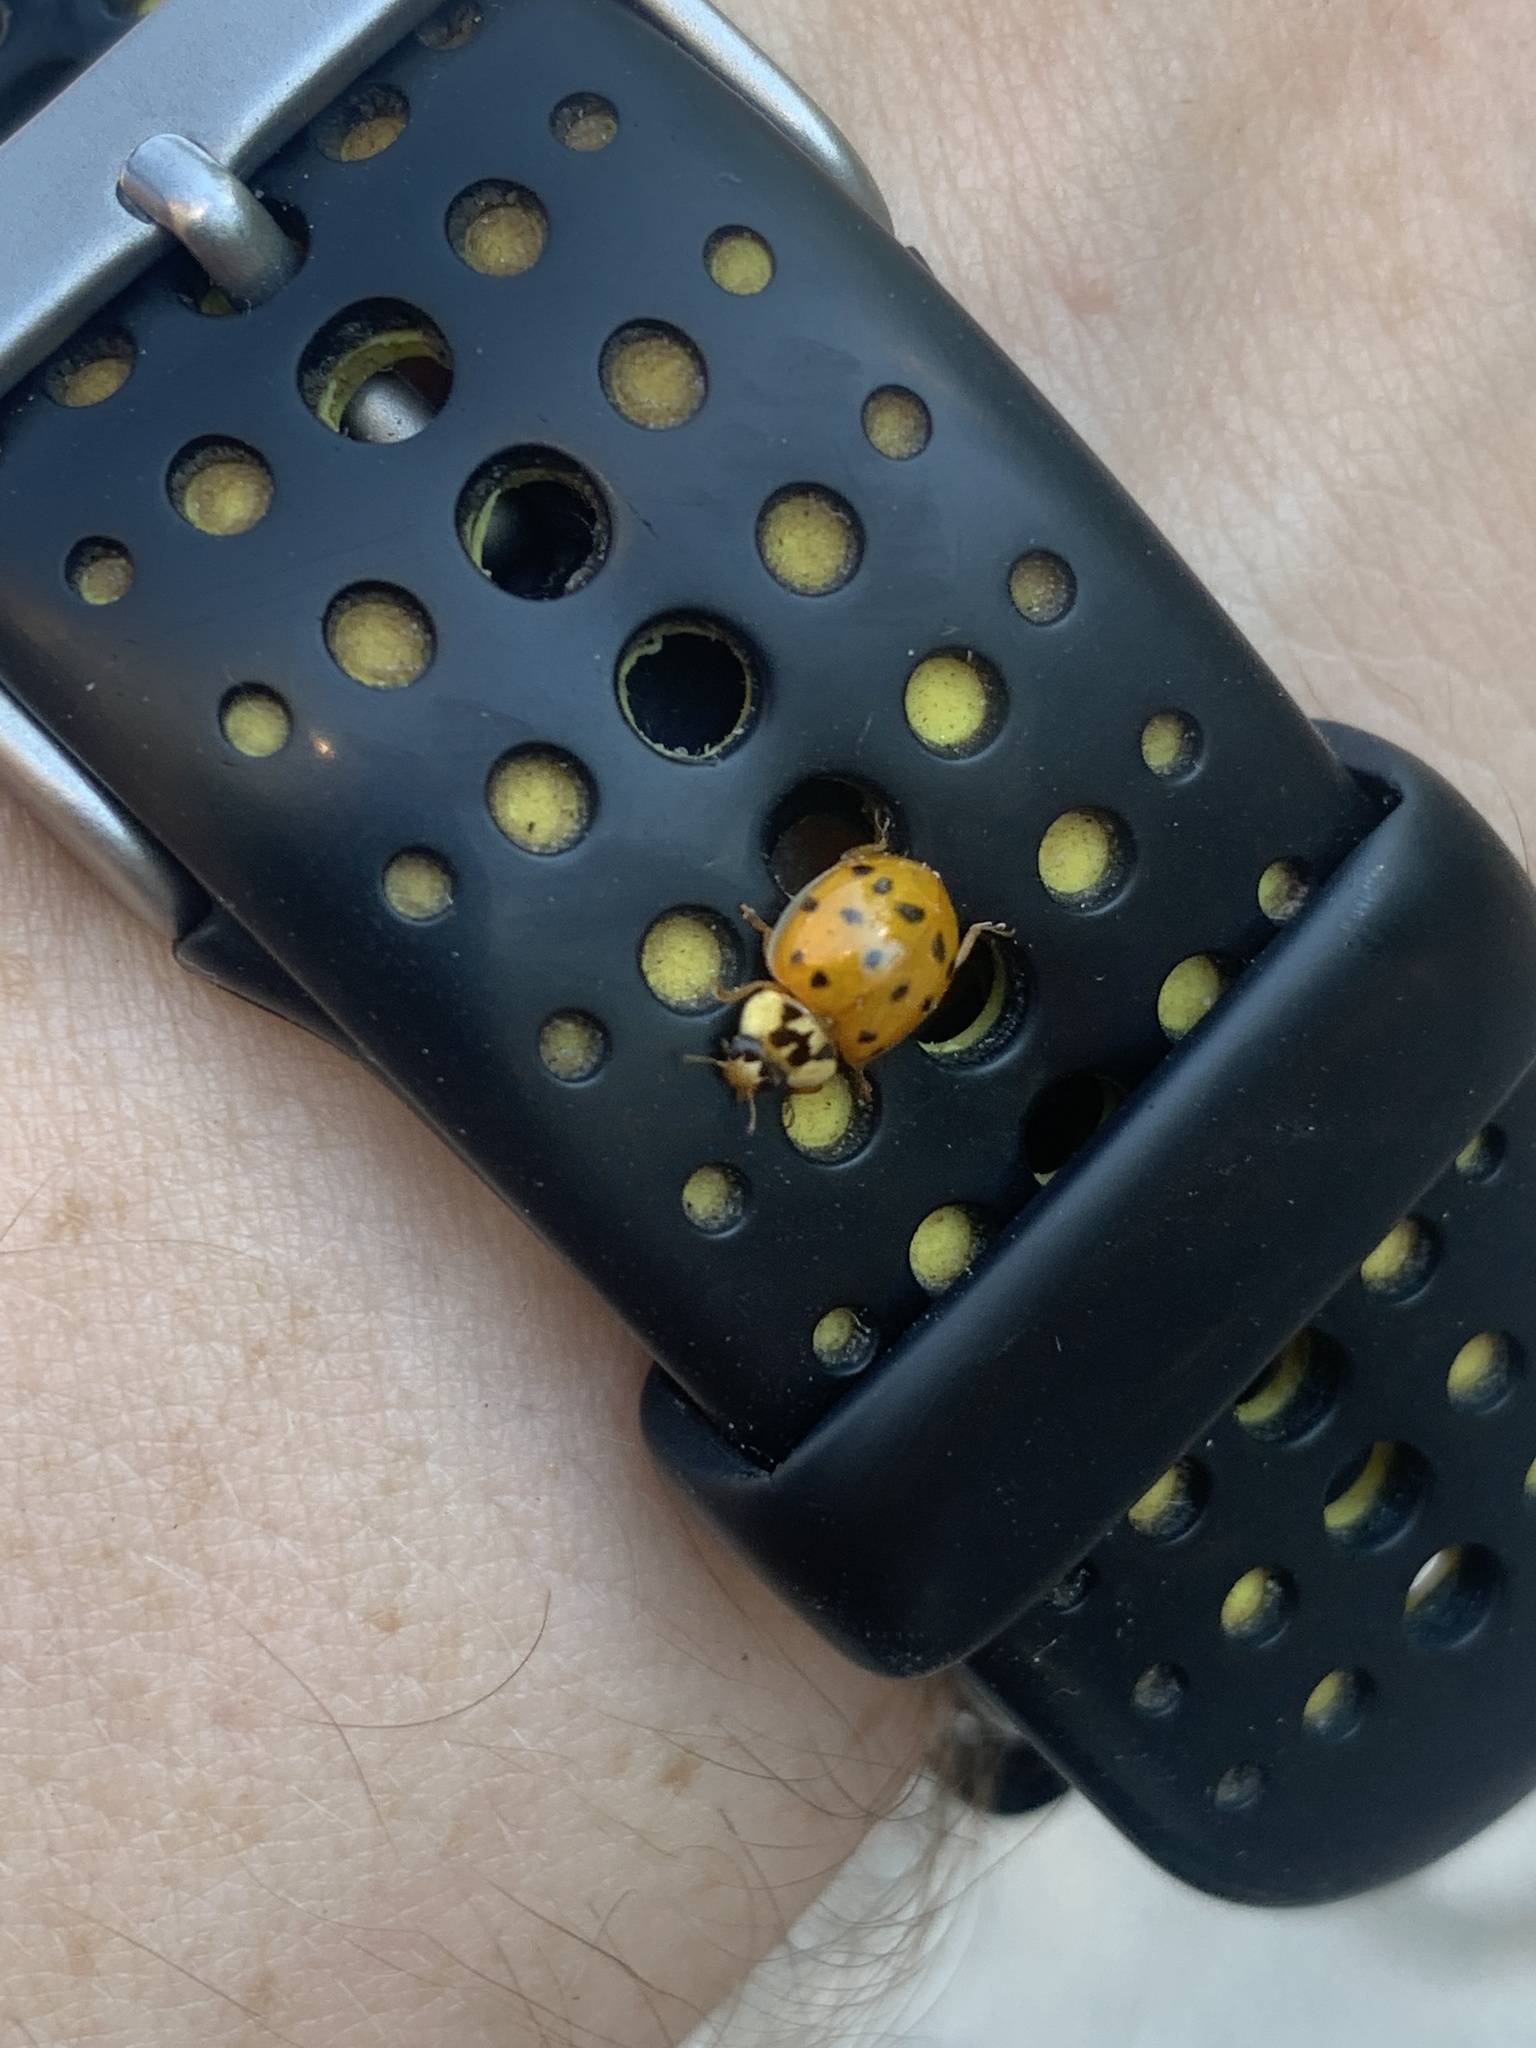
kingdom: Animalia
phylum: Arthropoda
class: Insecta
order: Coleoptera
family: Coccinellidae
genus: Harmonia
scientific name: Harmonia axyridis
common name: Harlequin ladybird
